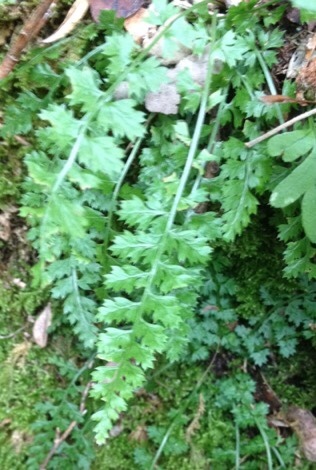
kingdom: Plantae
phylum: Tracheophyta
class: Polypodiopsida
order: Polypodiales
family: Aspleniaceae
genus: Asplenium
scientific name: Asplenium fontanum
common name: Fountain spleenwort
